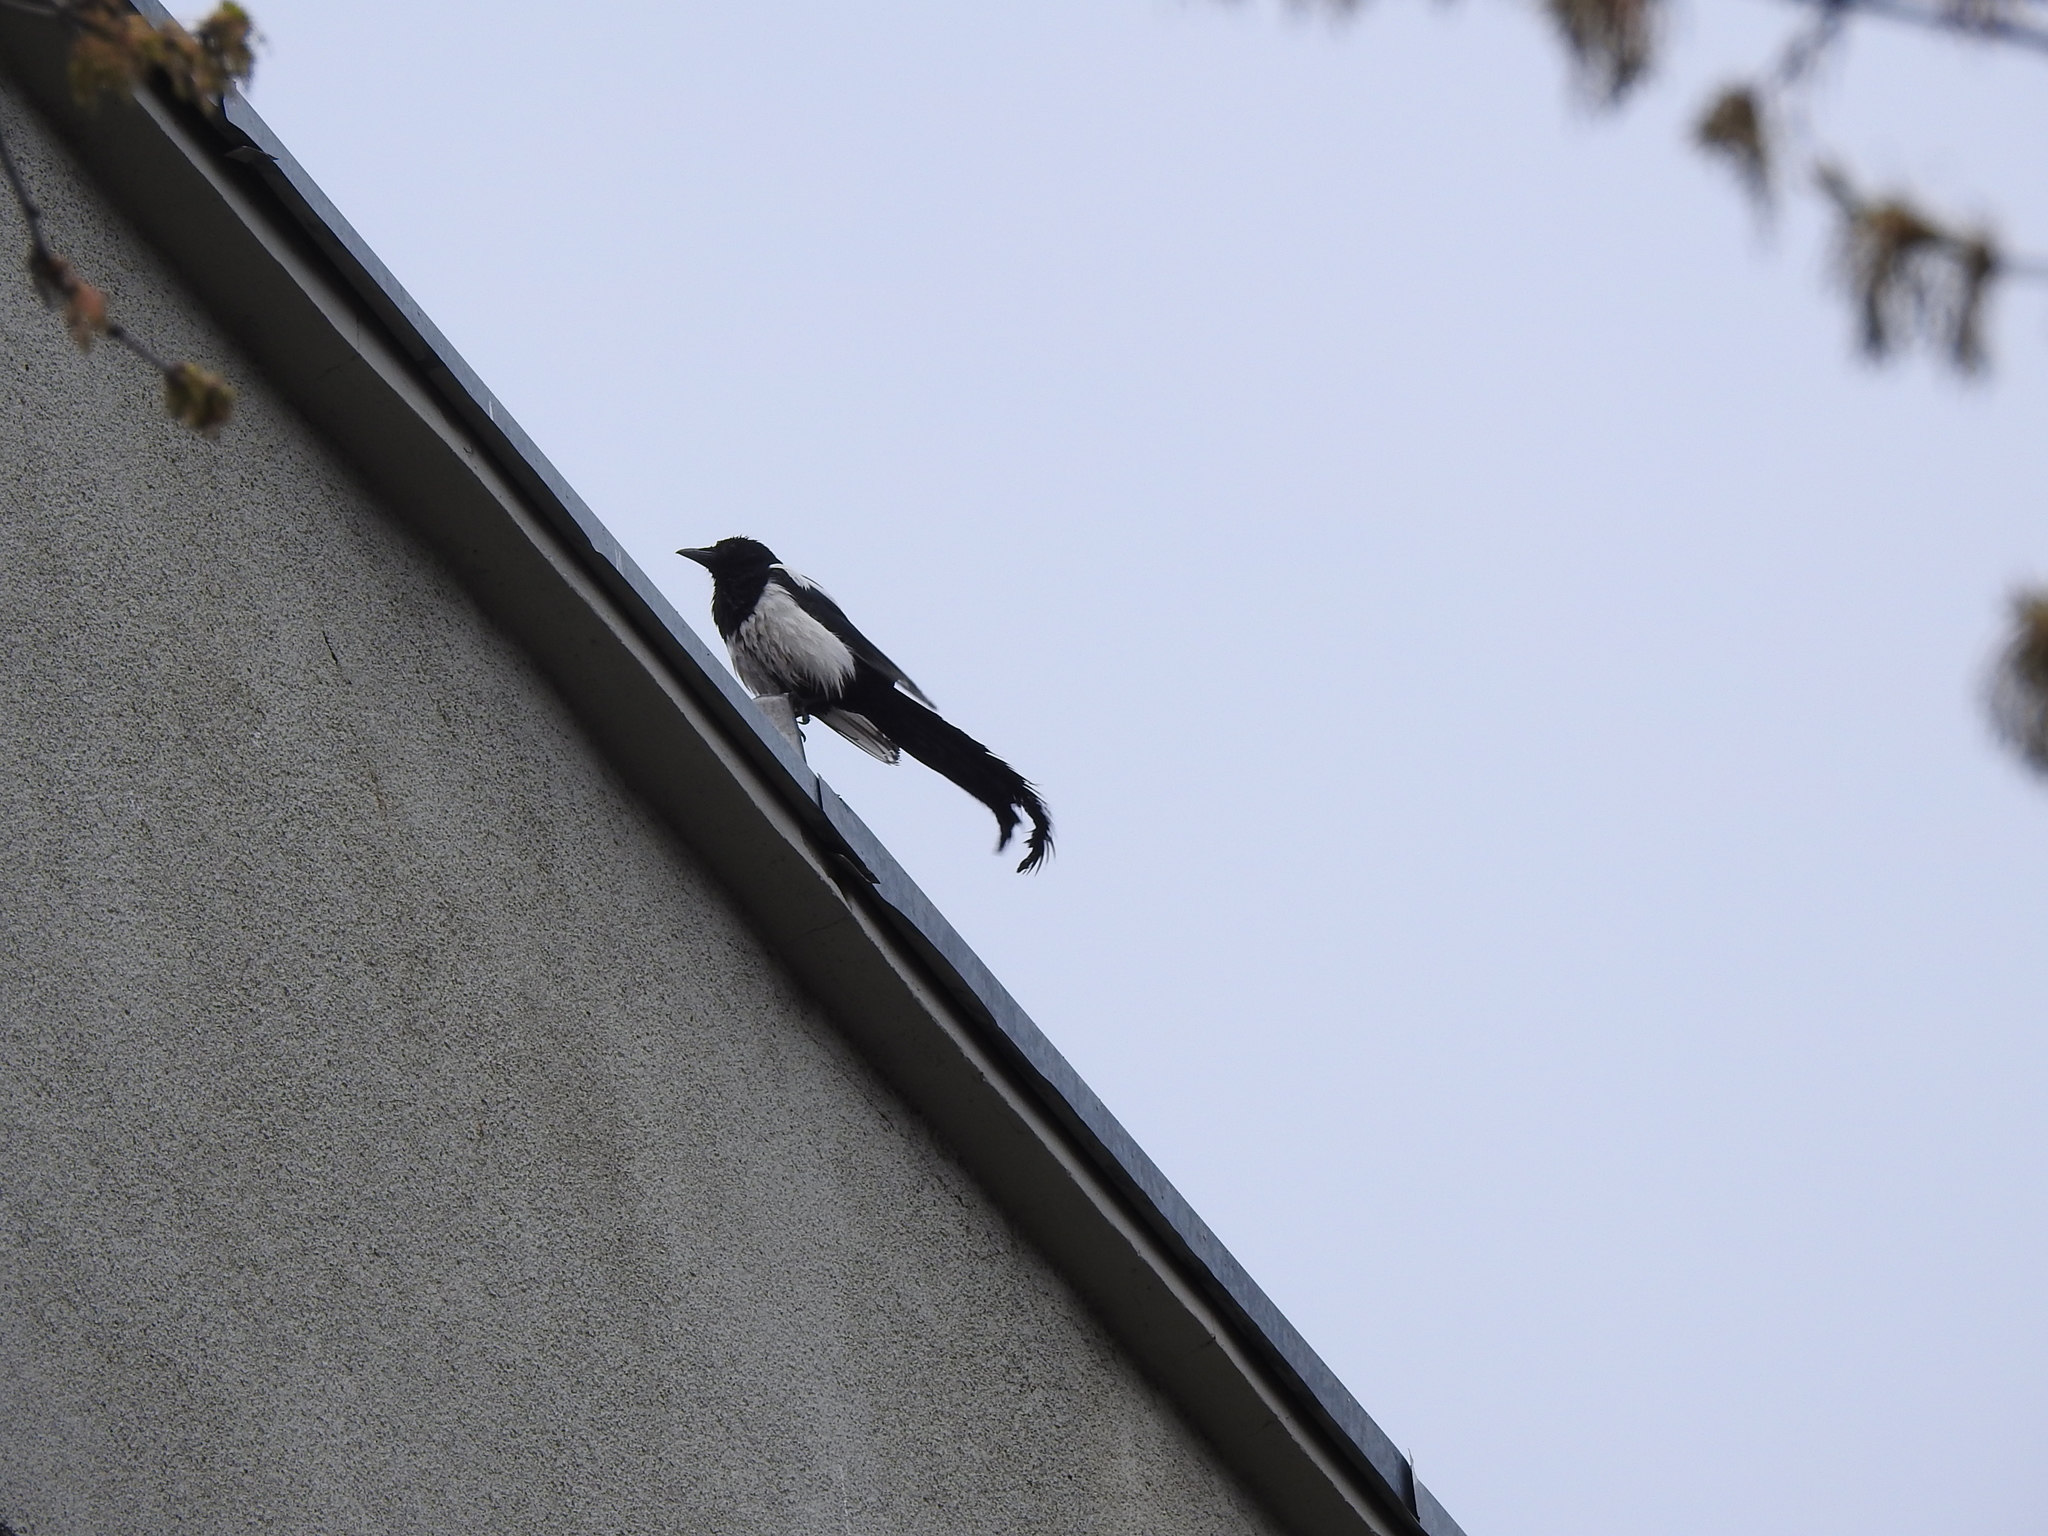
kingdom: Animalia
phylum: Chordata
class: Aves
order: Passeriformes
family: Corvidae
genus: Pica
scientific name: Pica pica
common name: Eurasian magpie
